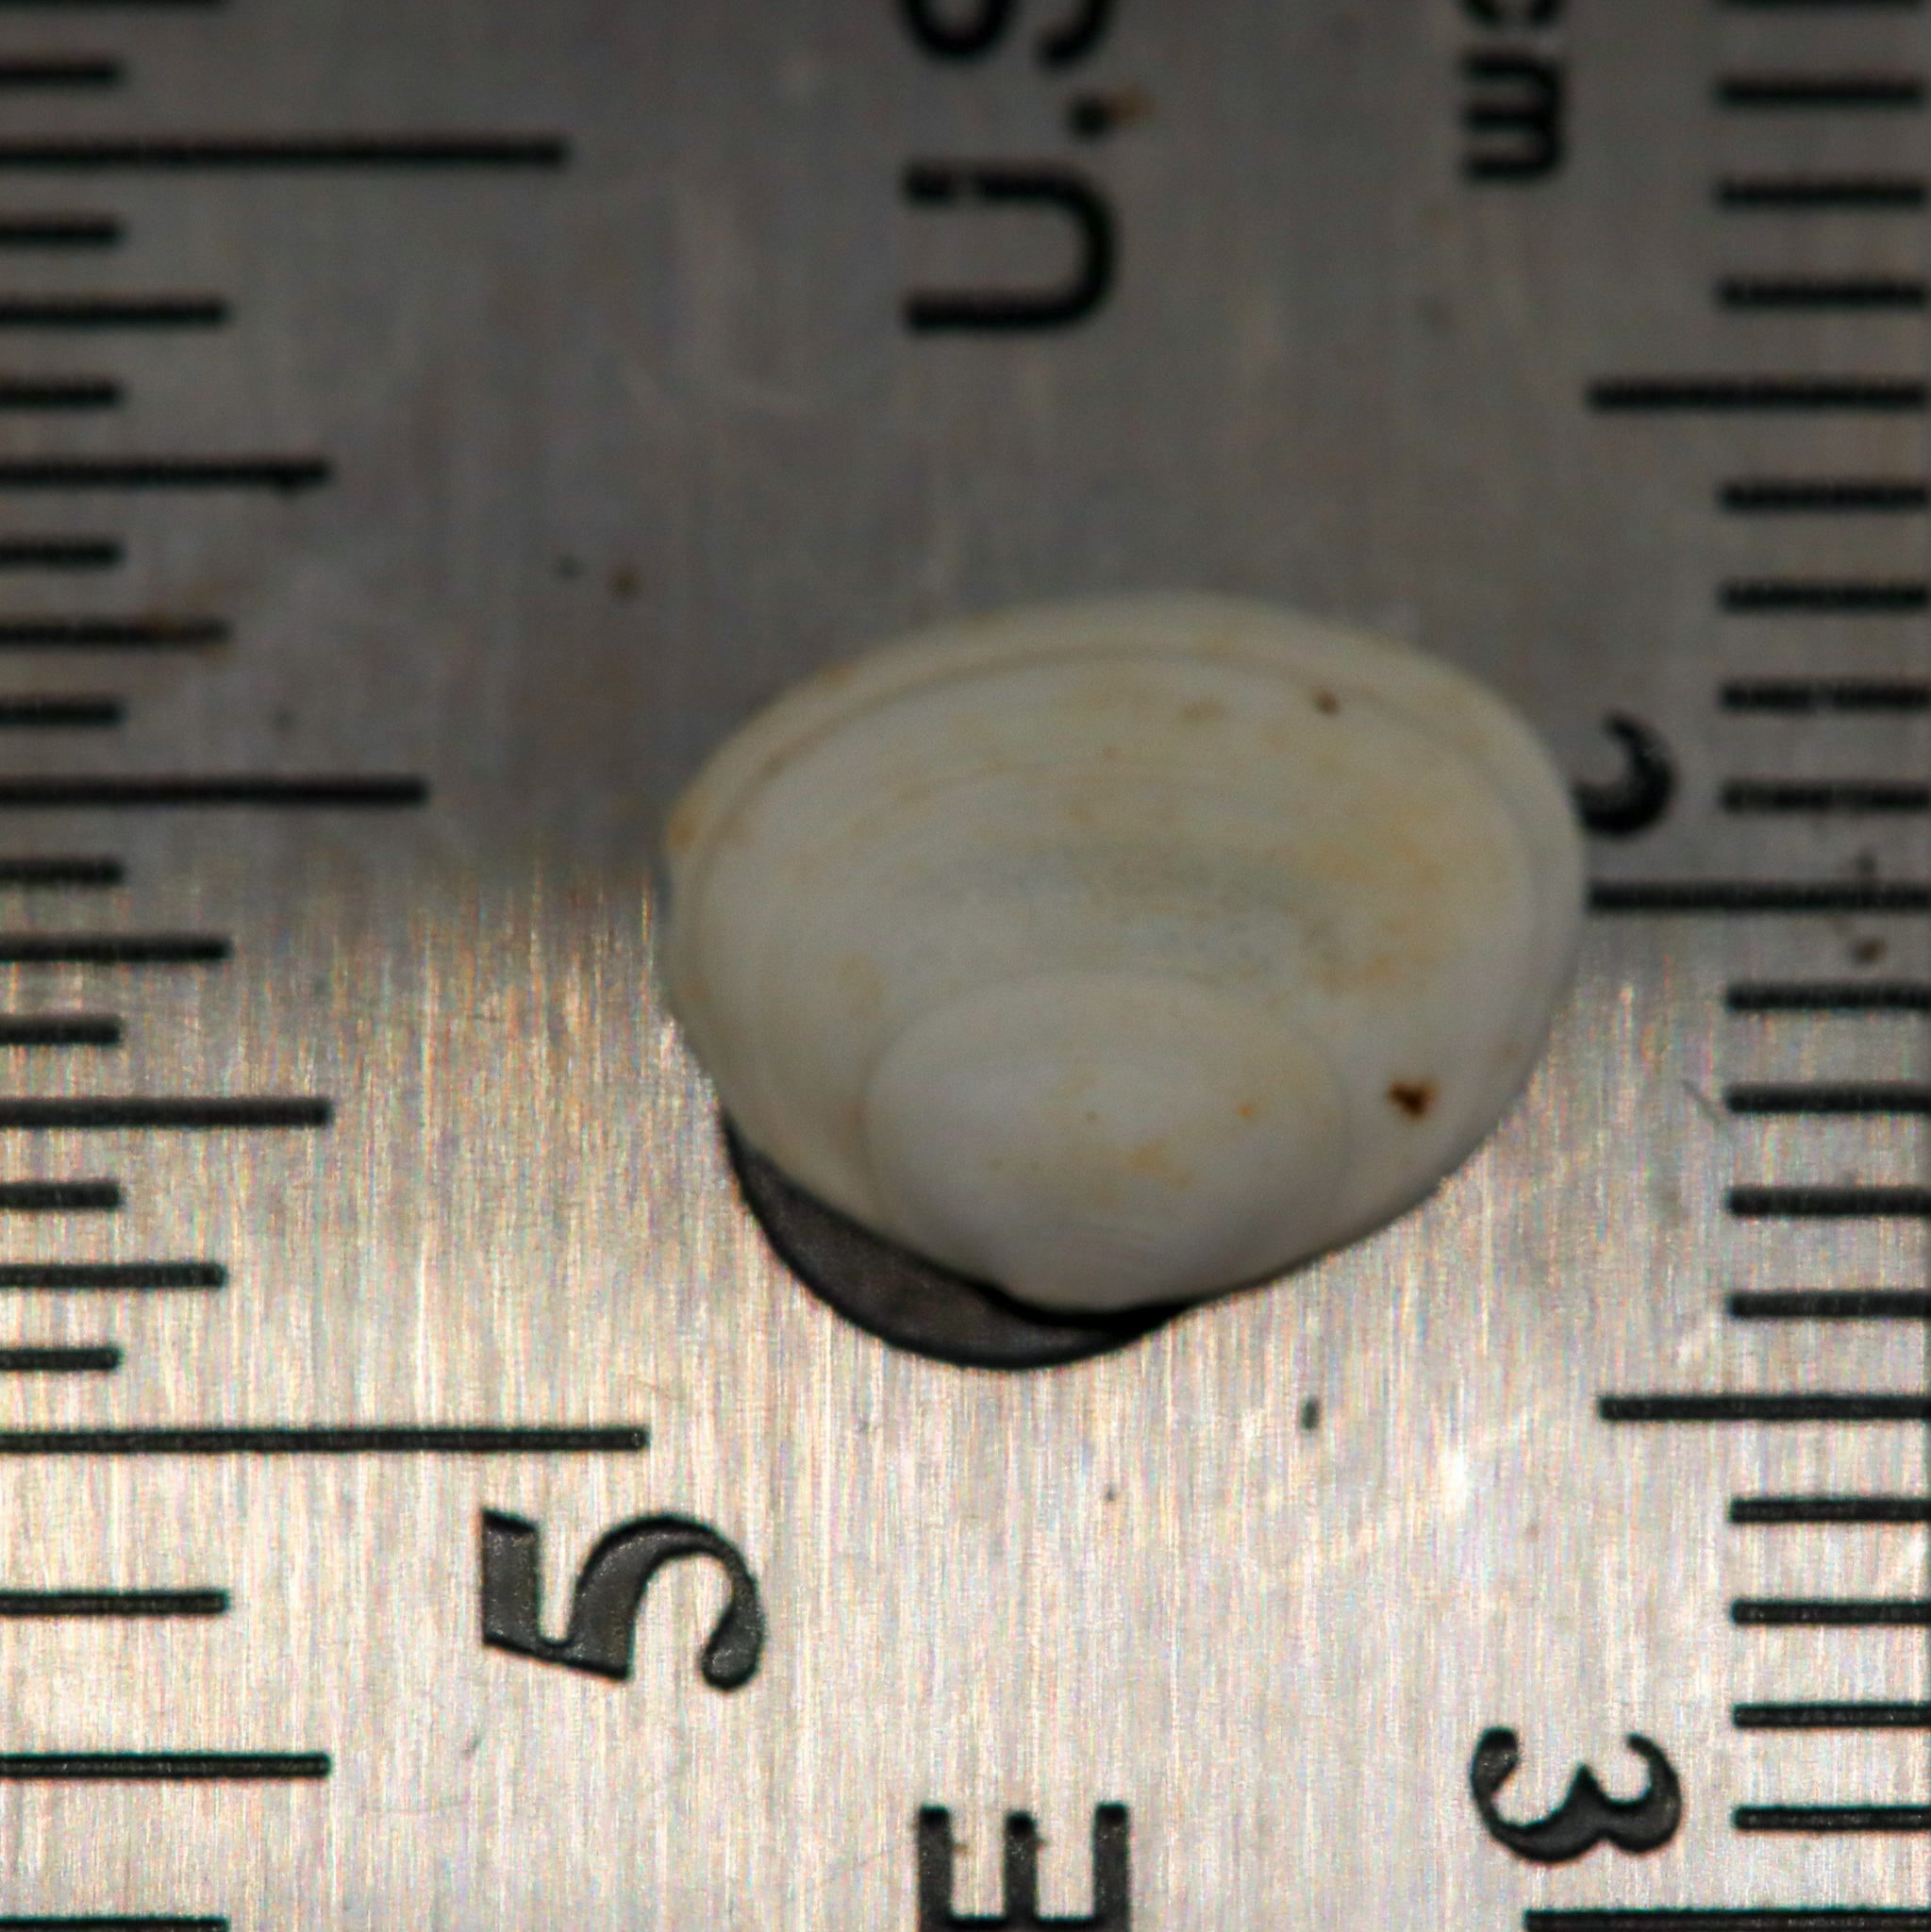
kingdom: Animalia
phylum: Mollusca
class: Bivalvia
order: Sphaeriida
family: Sphaeriidae
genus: Sphaerium
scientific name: Sphaerium striatinum
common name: Striated fingernailclam
